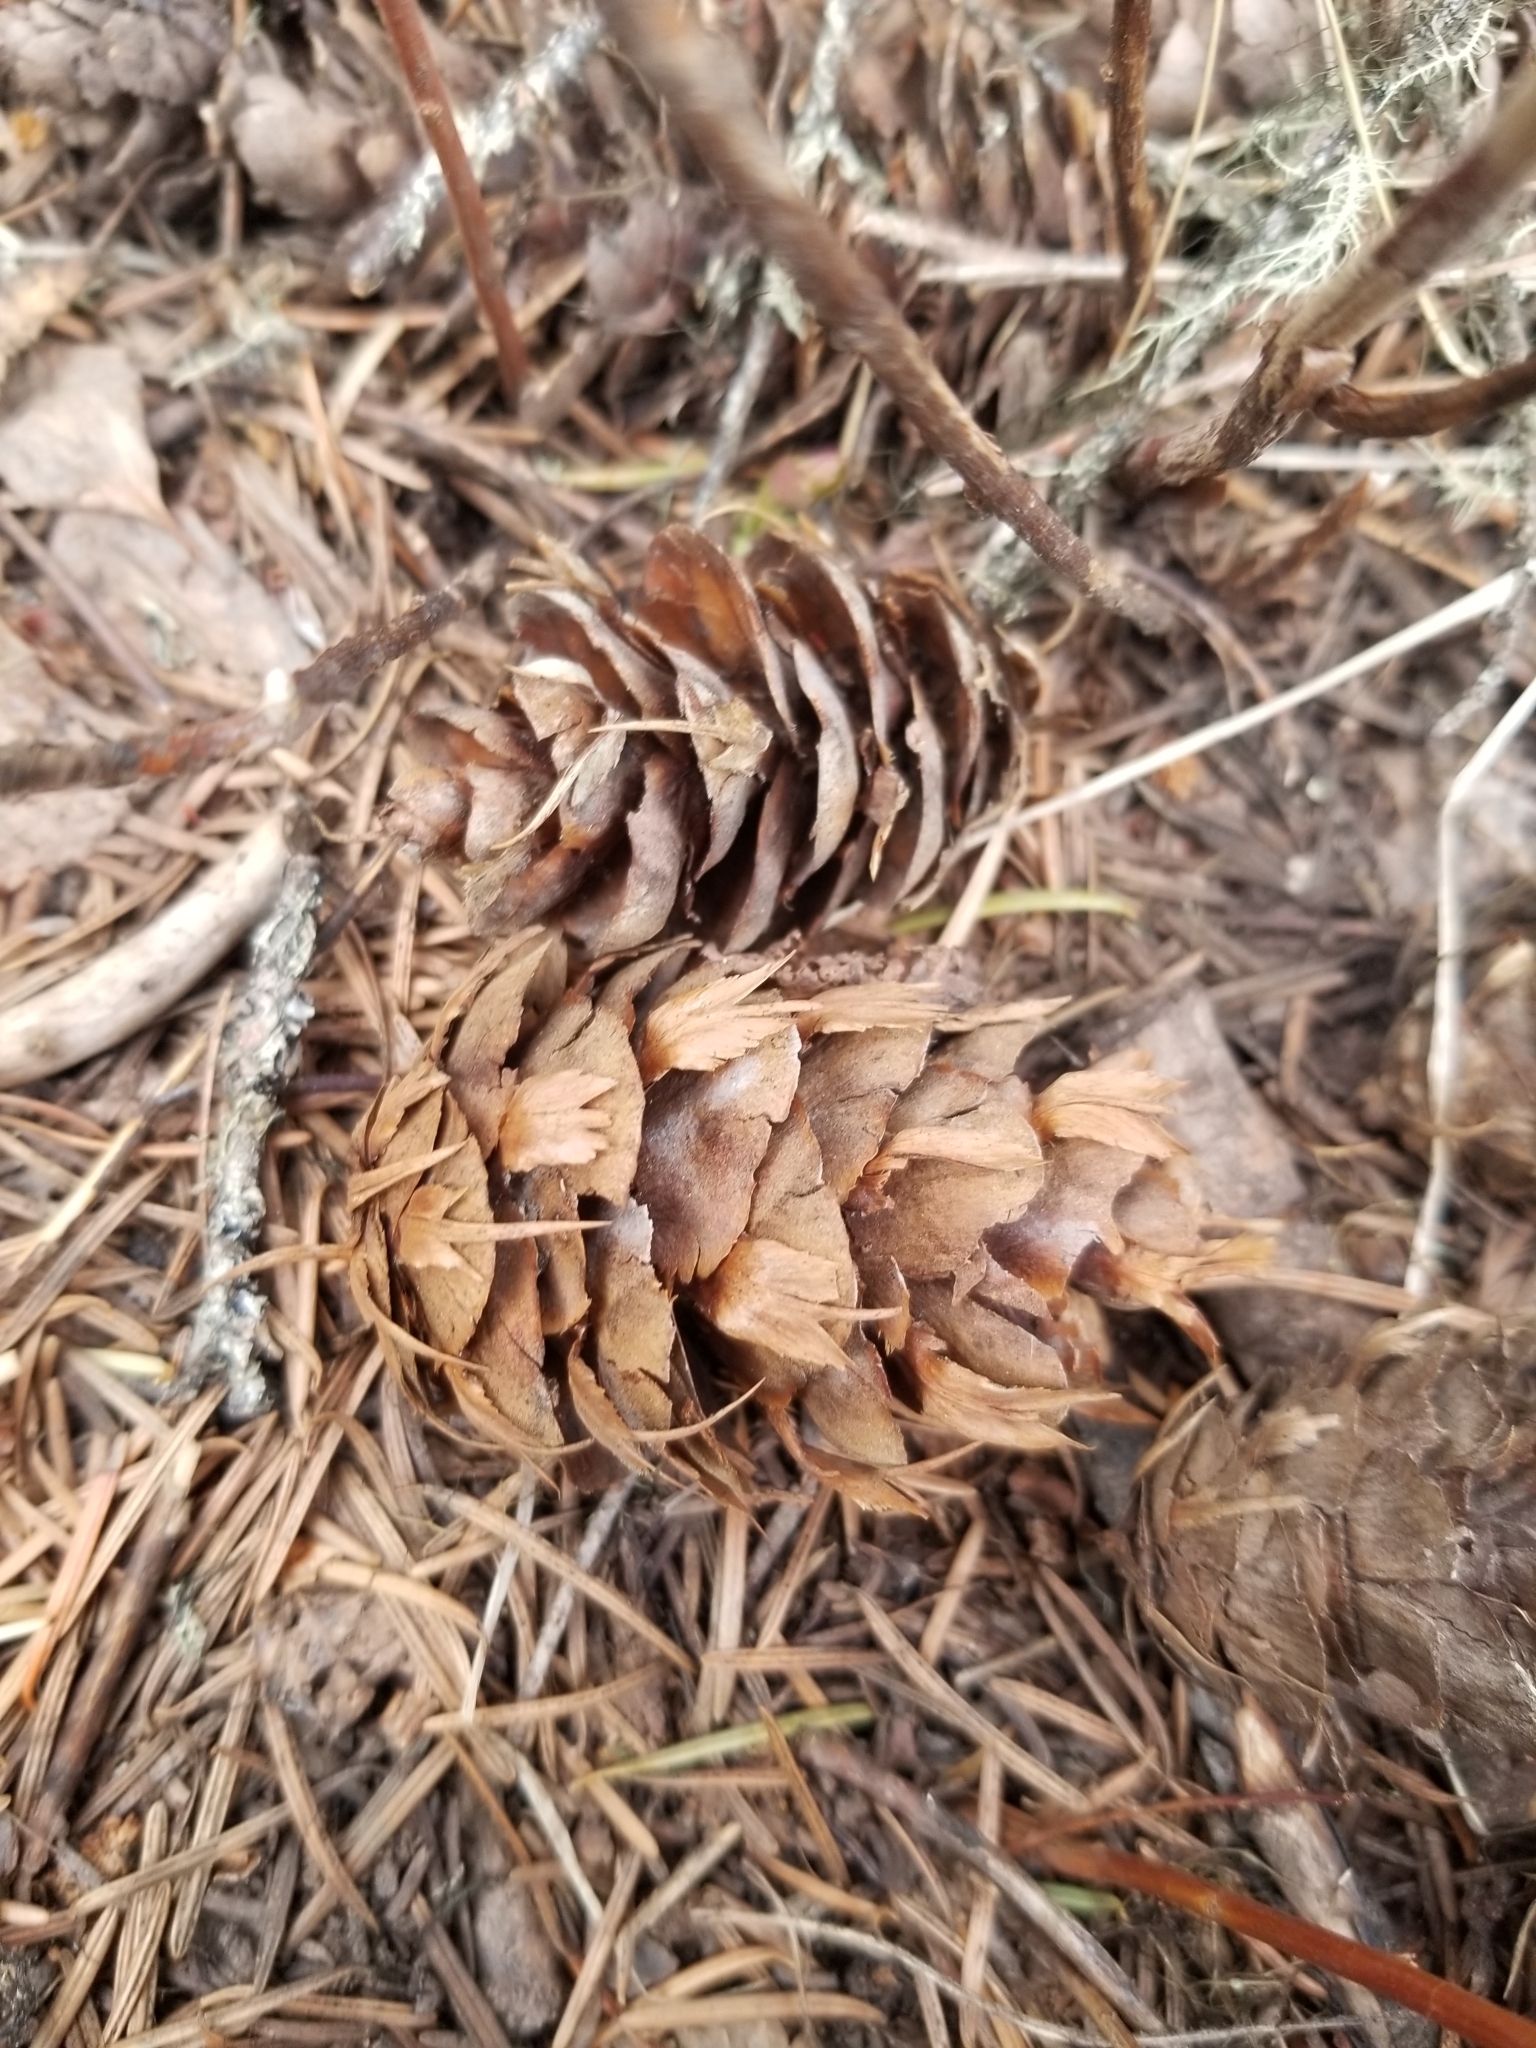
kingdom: Plantae
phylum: Tracheophyta
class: Pinopsida
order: Pinales
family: Pinaceae
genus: Pseudotsuga
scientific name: Pseudotsuga menziesii
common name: Douglas fir
